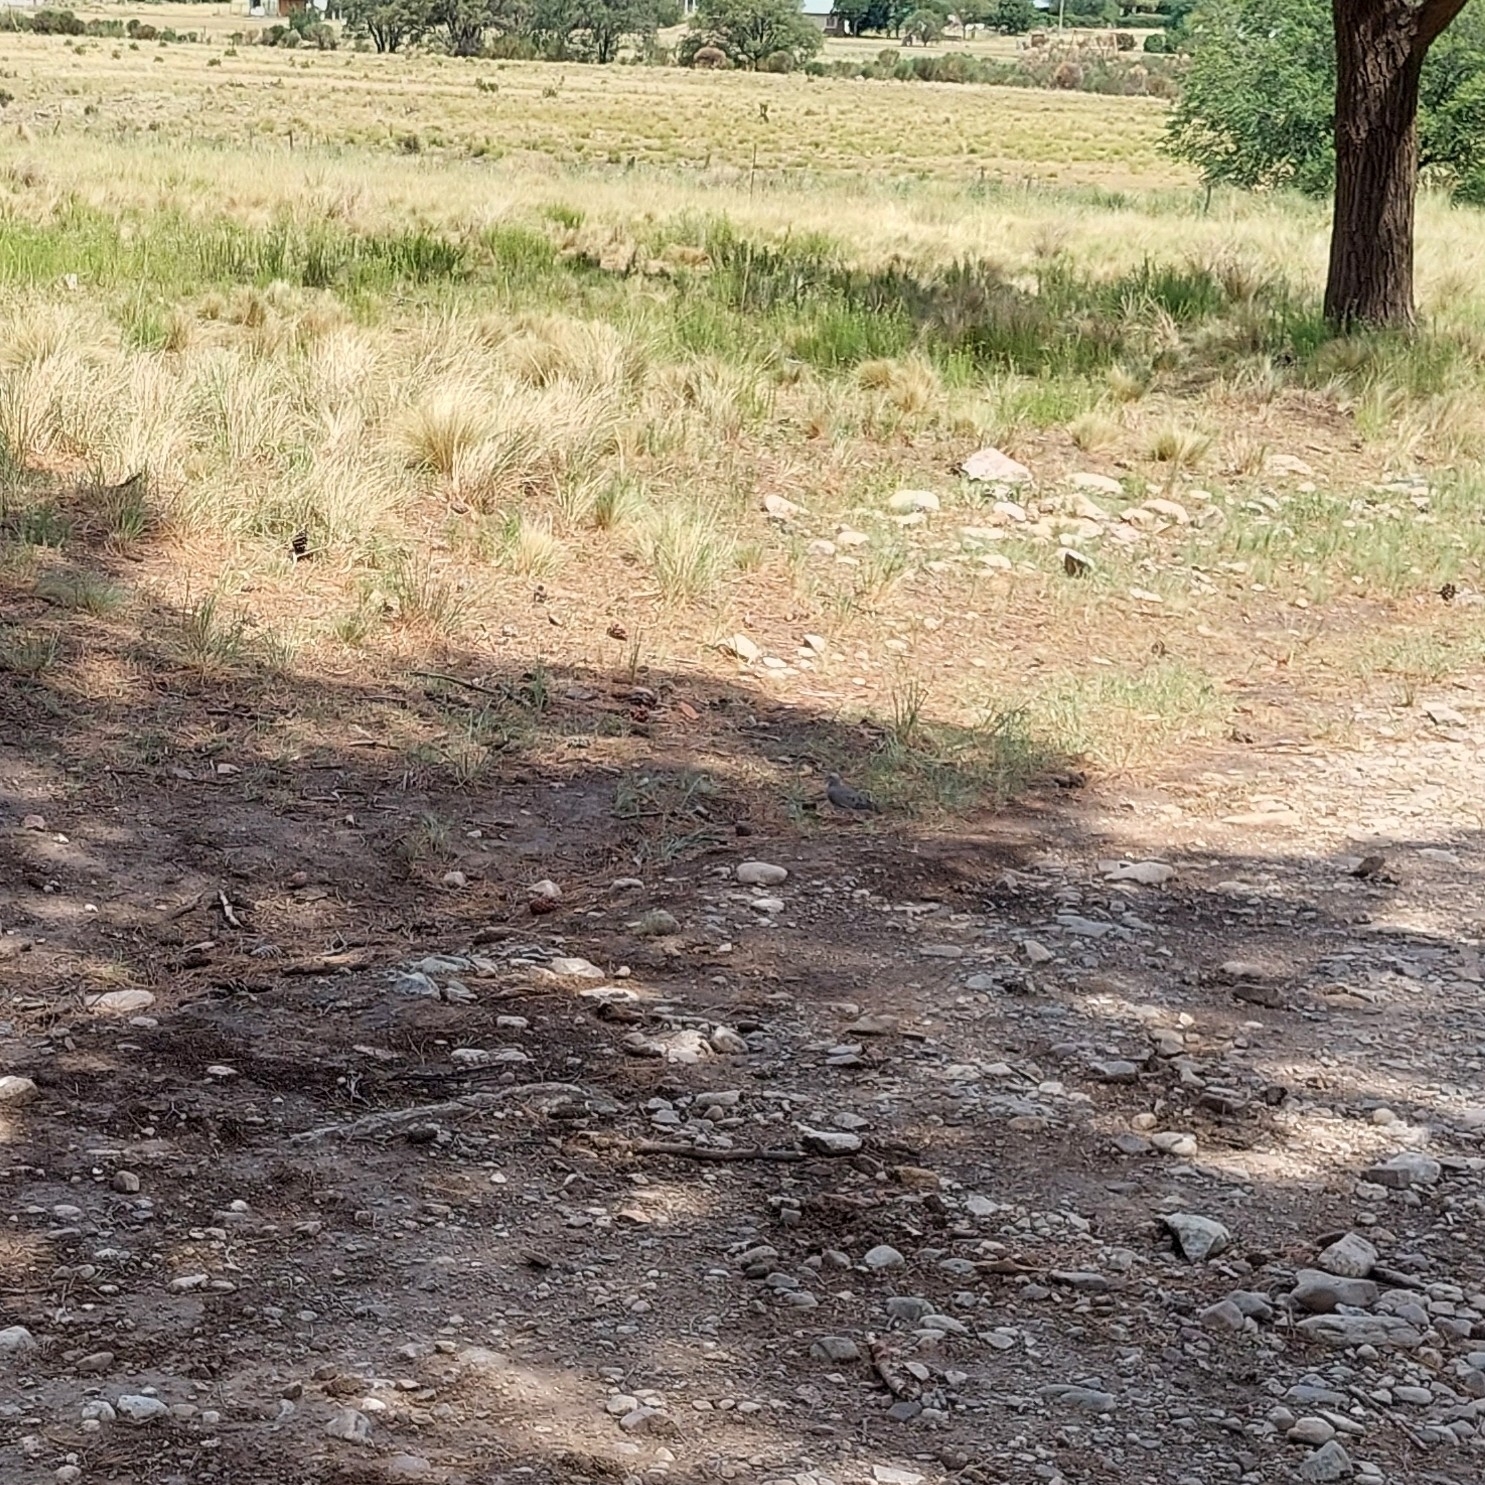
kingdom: Animalia
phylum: Chordata
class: Aves
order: Columbiformes
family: Columbidae
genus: Zenaida
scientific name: Zenaida auriculata
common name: Eared dove
